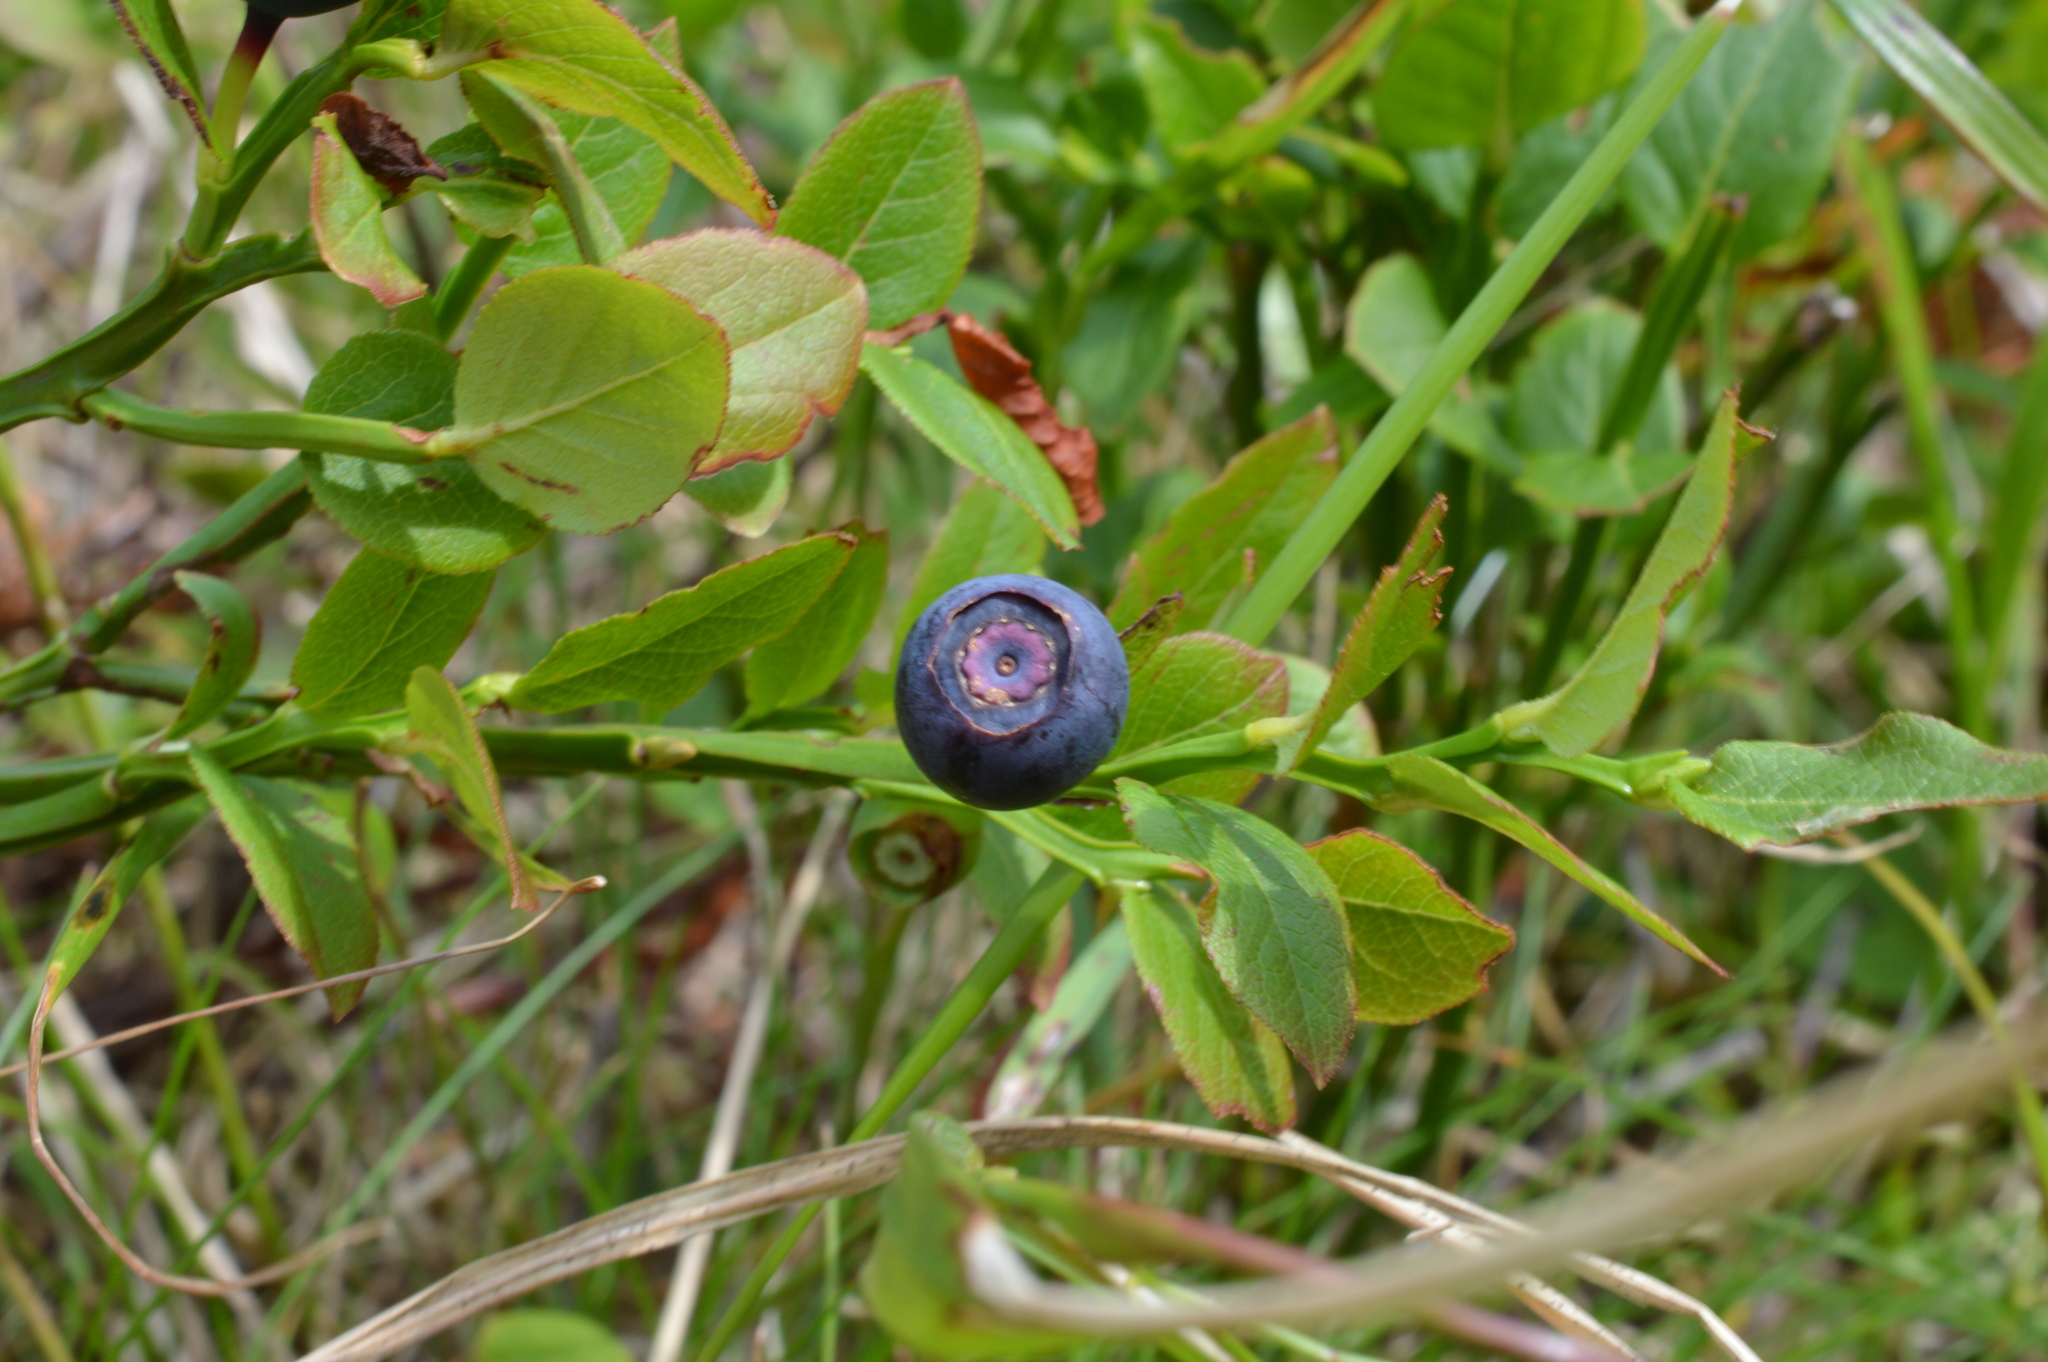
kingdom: Plantae
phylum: Tracheophyta
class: Magnoliopsida
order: Ericales
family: Ericaceae
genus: Vaccinium
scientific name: Vaccinium myrtillus
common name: Bilberry
